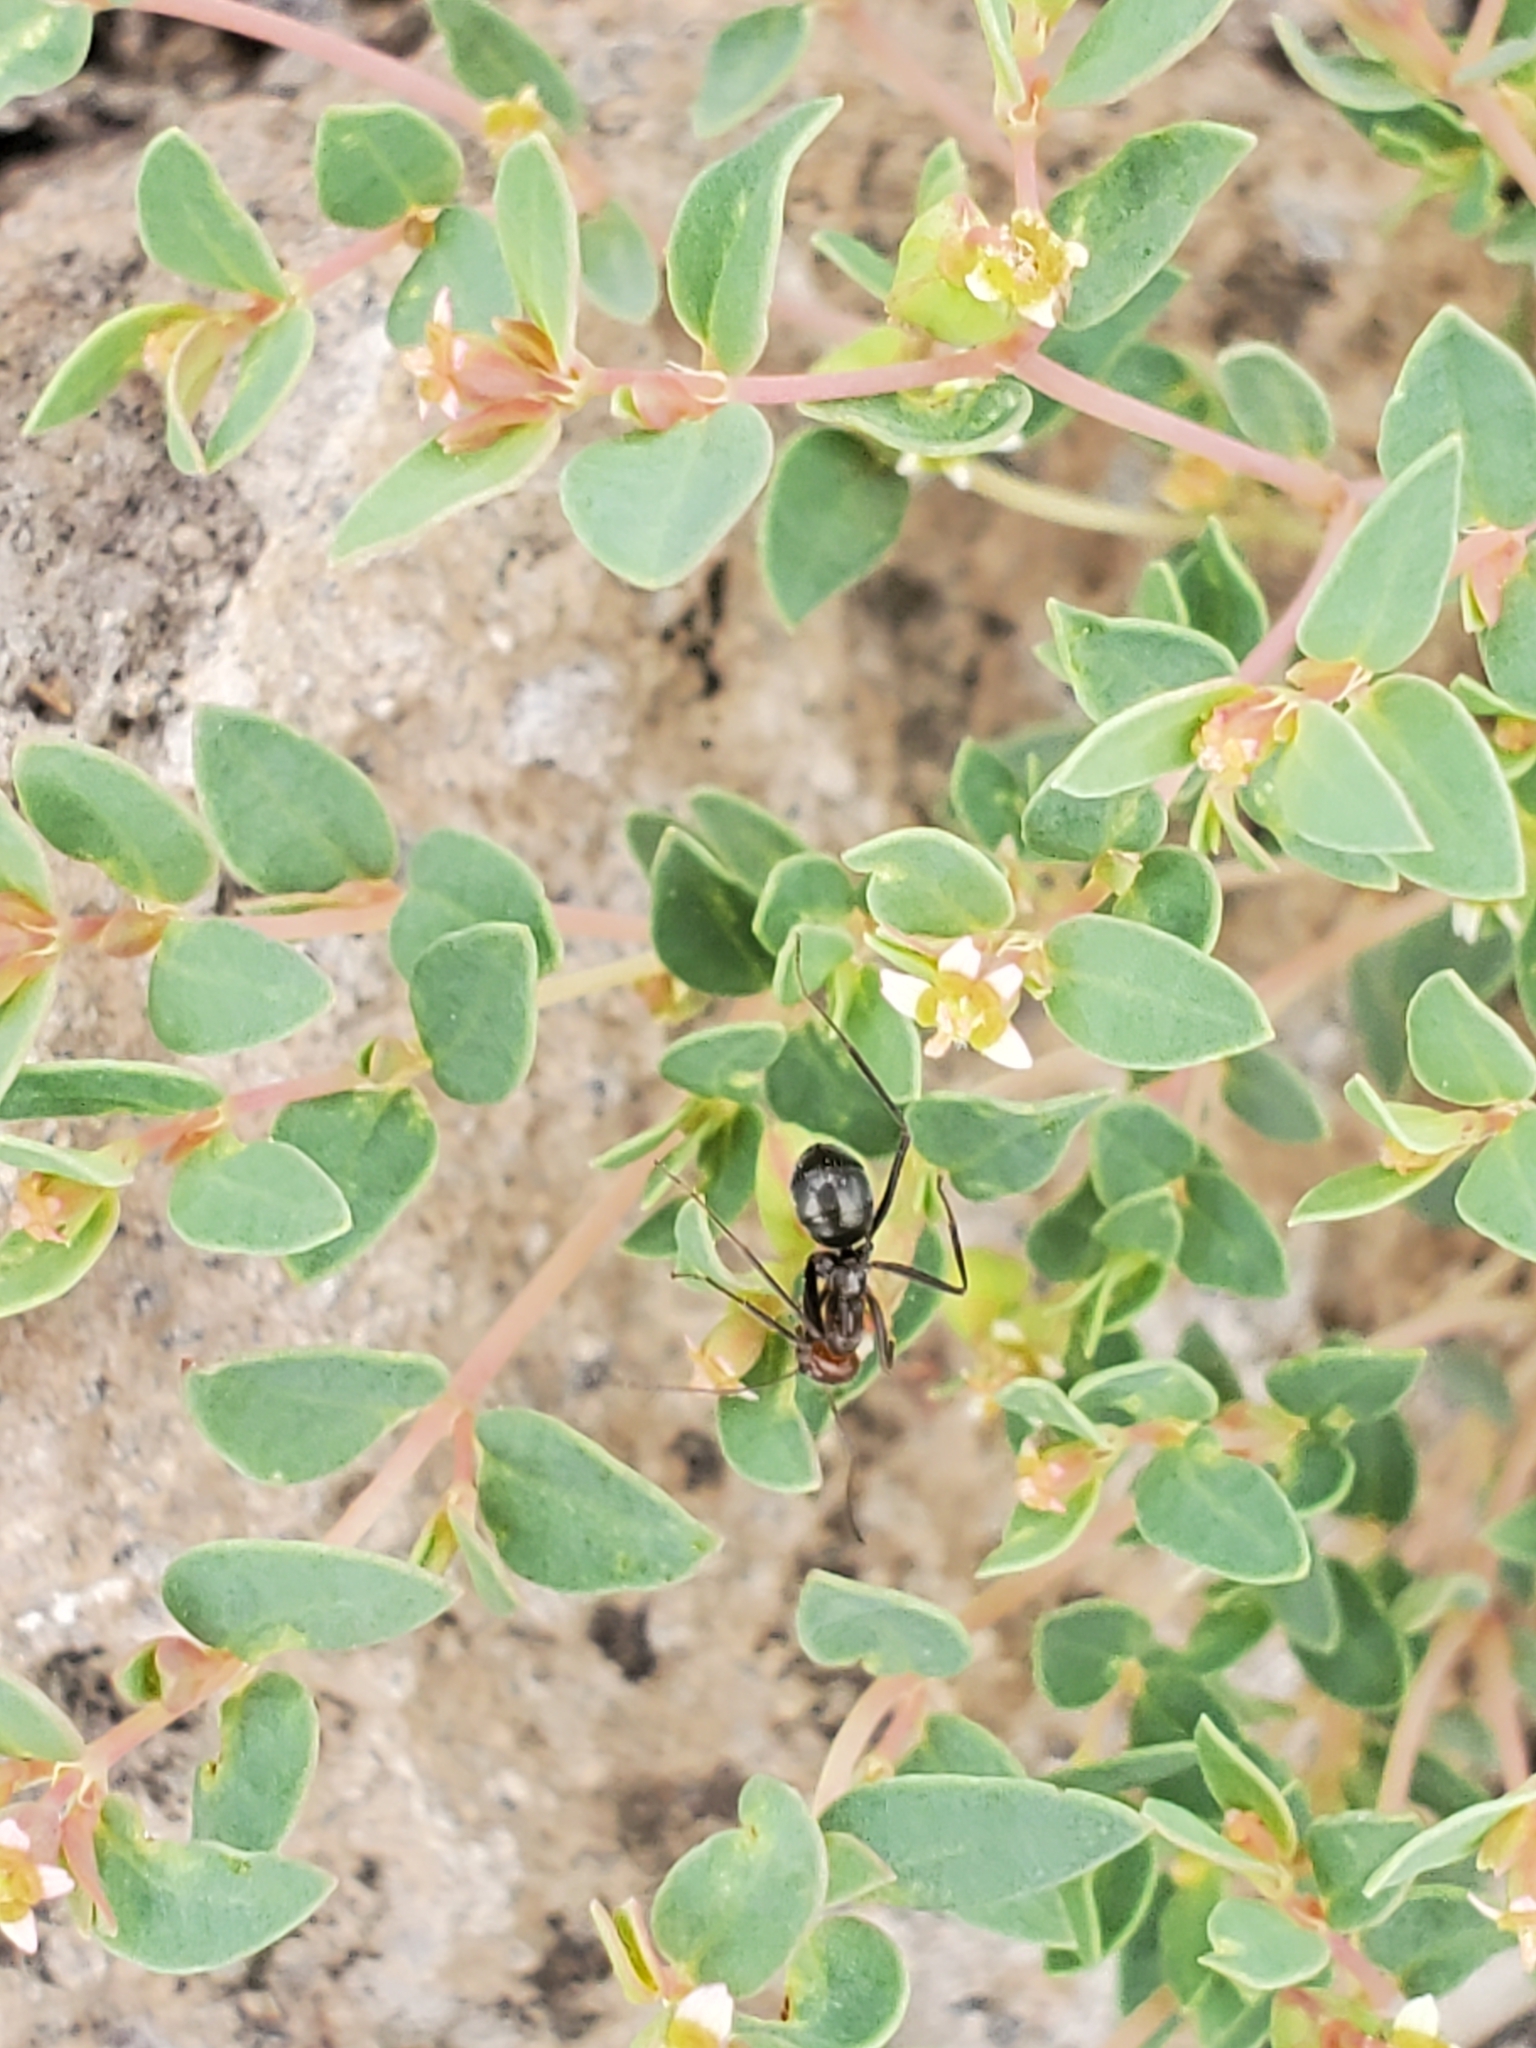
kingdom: Plantae
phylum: Tracheophyta
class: Magnoliopsida
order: Malpighiales
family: Euphorbiaceae
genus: Euphorbia
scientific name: Euphorbia fendleri
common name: Fendler's euphorbia
